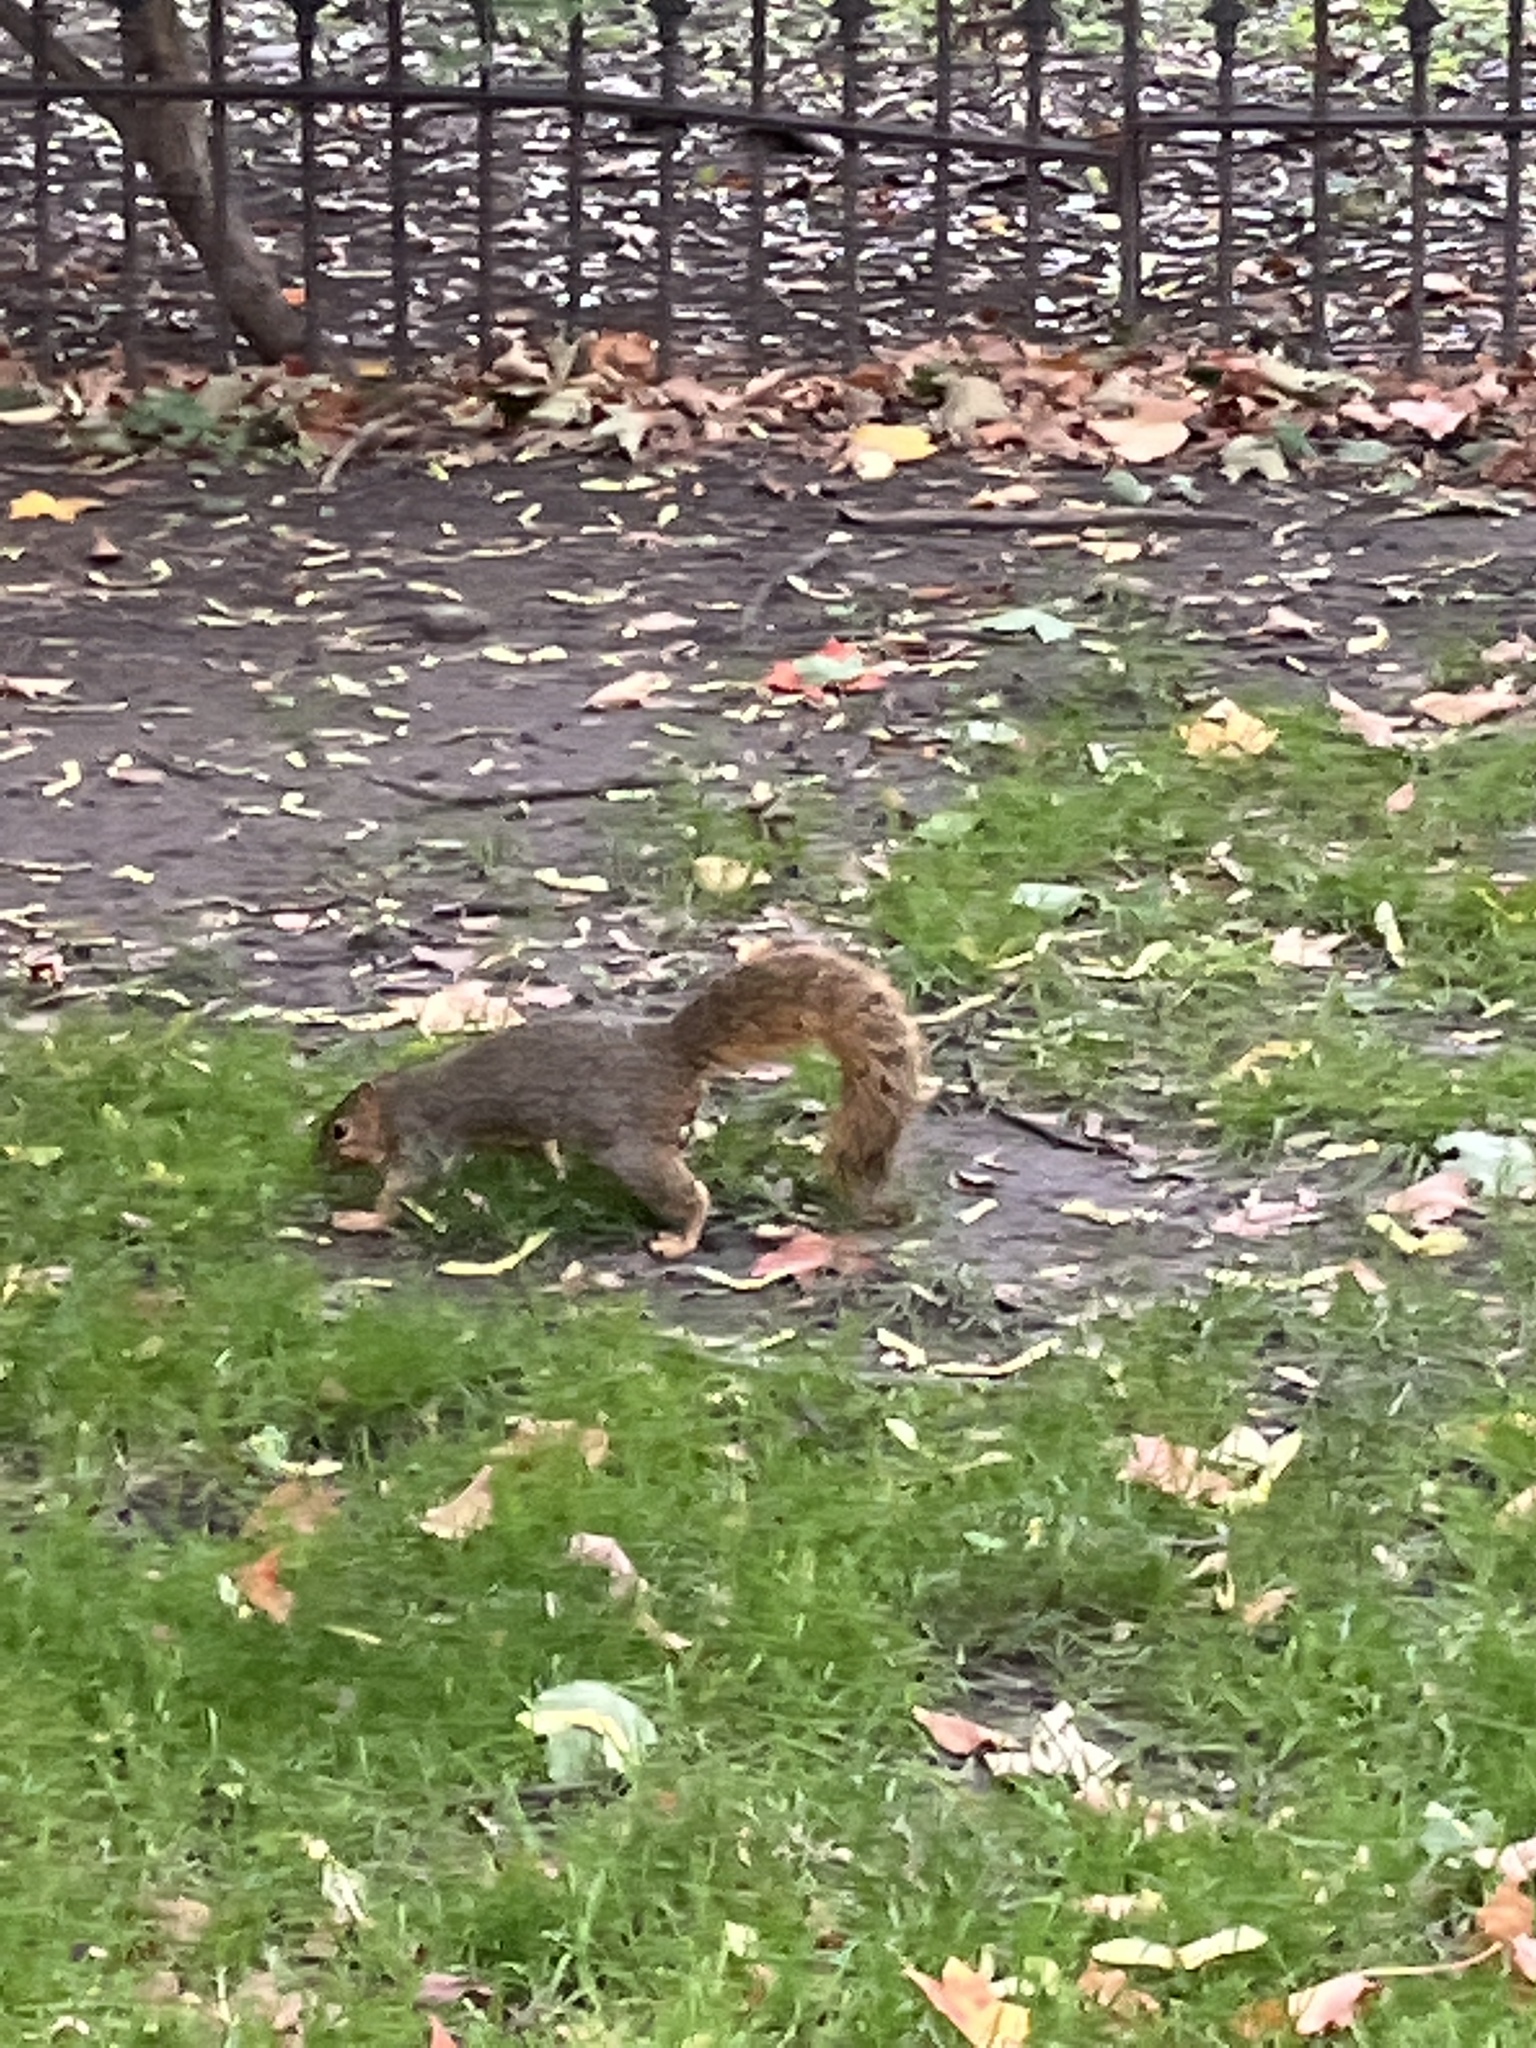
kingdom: Animalia
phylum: Chordata
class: Mammalia
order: Rodentia
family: Sciuridae
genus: Sciurus
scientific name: Sciurus niger
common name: Fox squirrel
